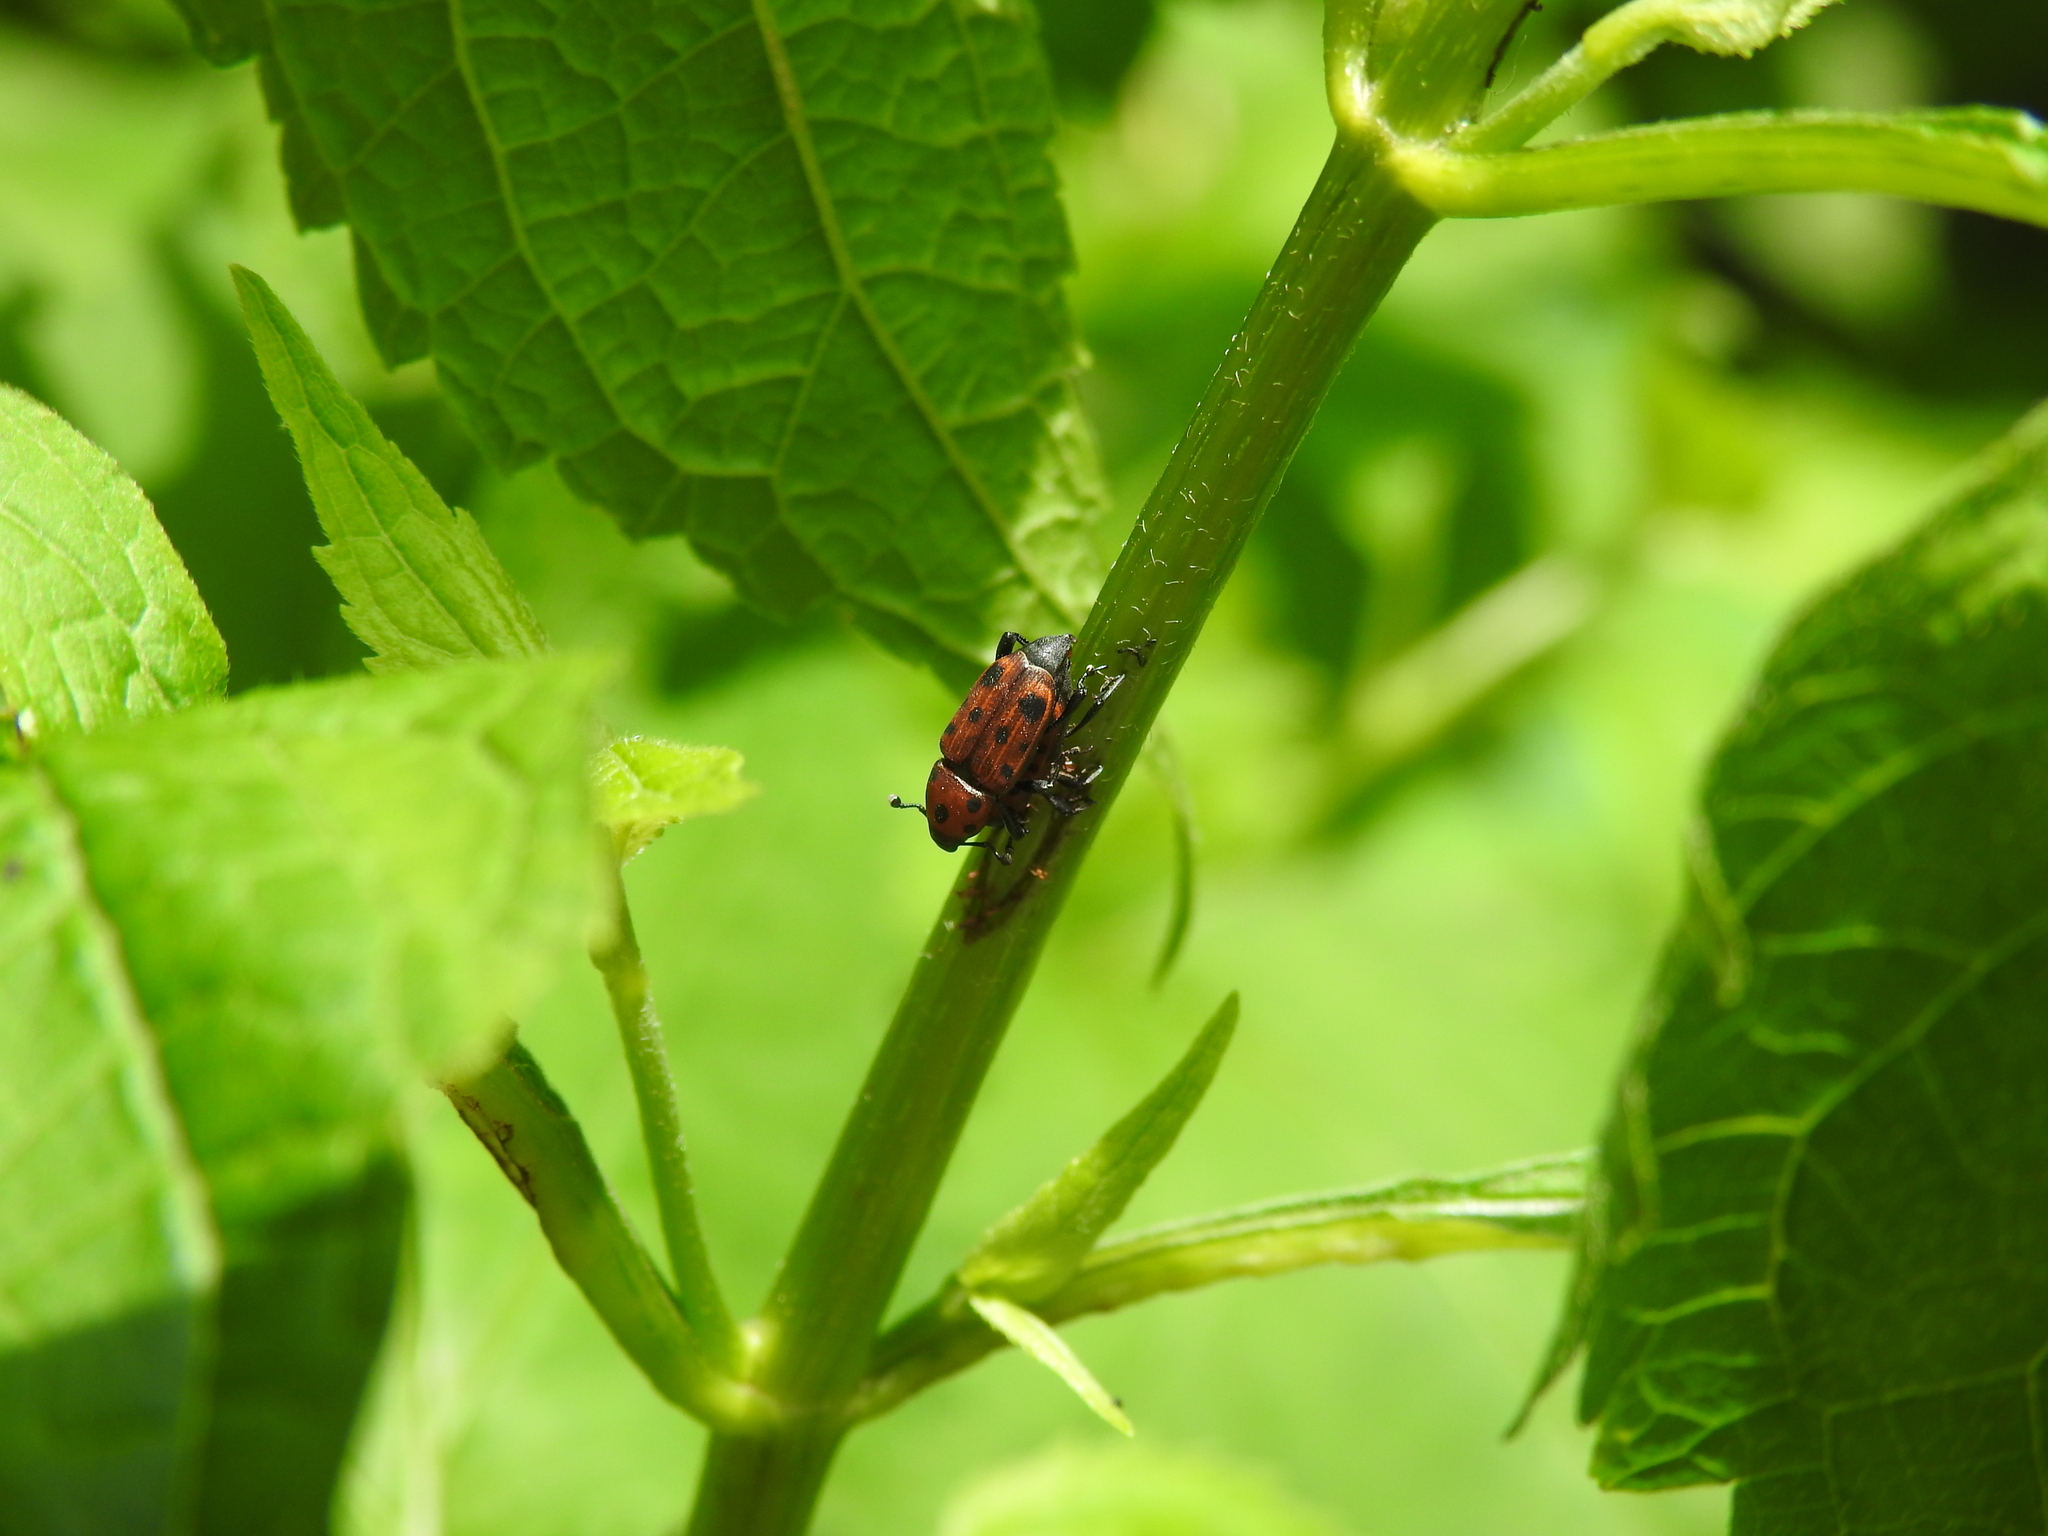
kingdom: Animalia
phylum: Arthropoda
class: Insecta
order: Coleoptera
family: Dryophthoridae
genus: Rhodobaenus
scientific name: Rhodobaenus tredecimpunctatus
